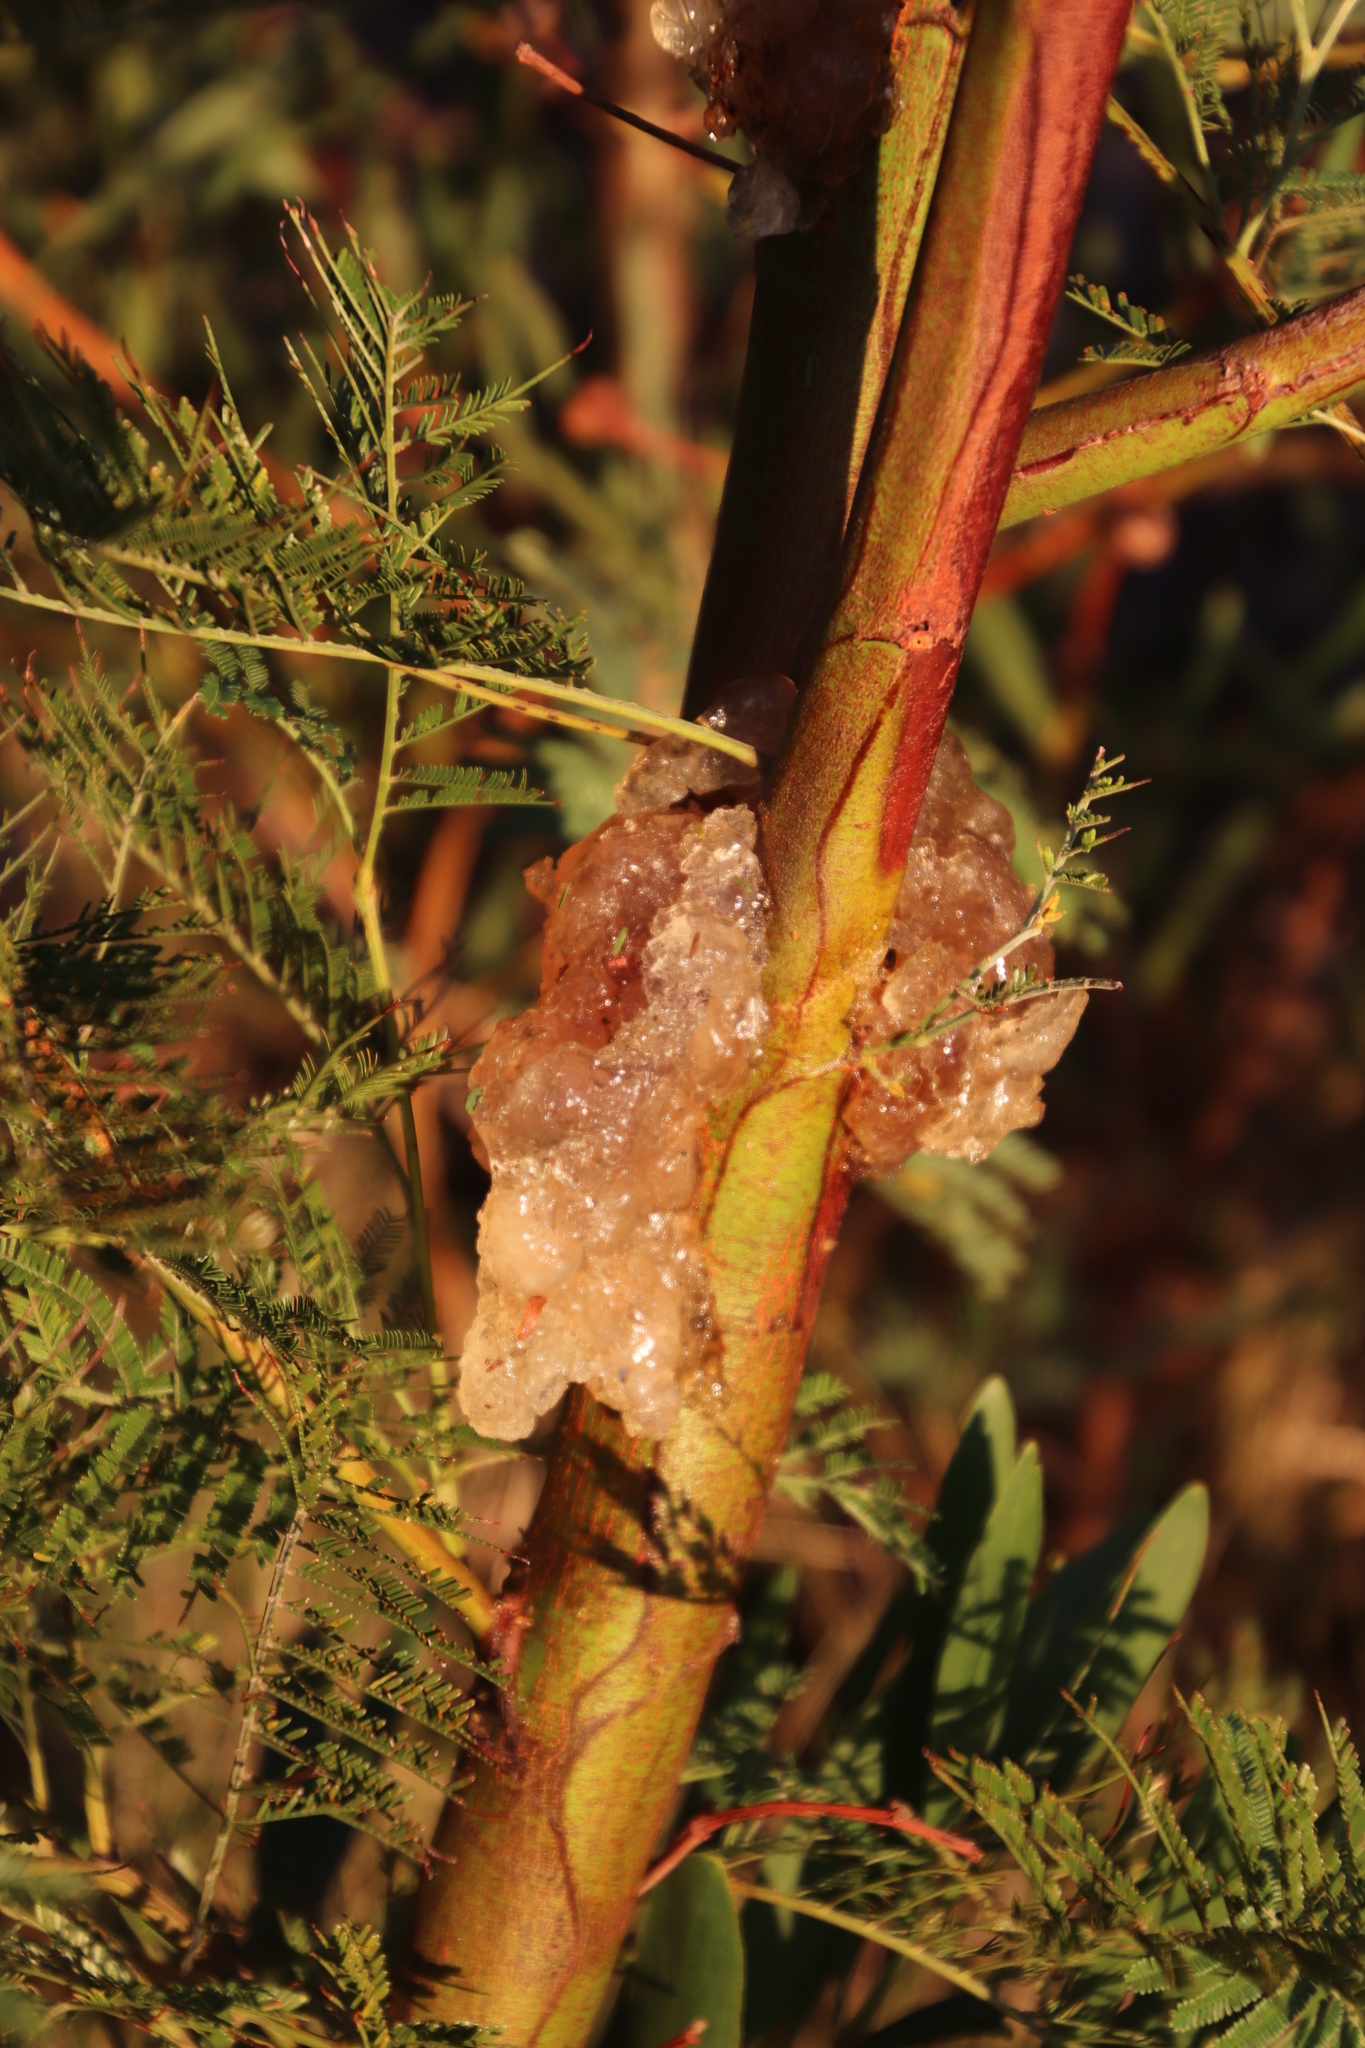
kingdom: Plantae
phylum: Tracheophyta
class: Magnoliopsida
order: Fabales
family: Fabaceae
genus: Acacia
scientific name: Acacia mearnsii
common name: Black wattle
